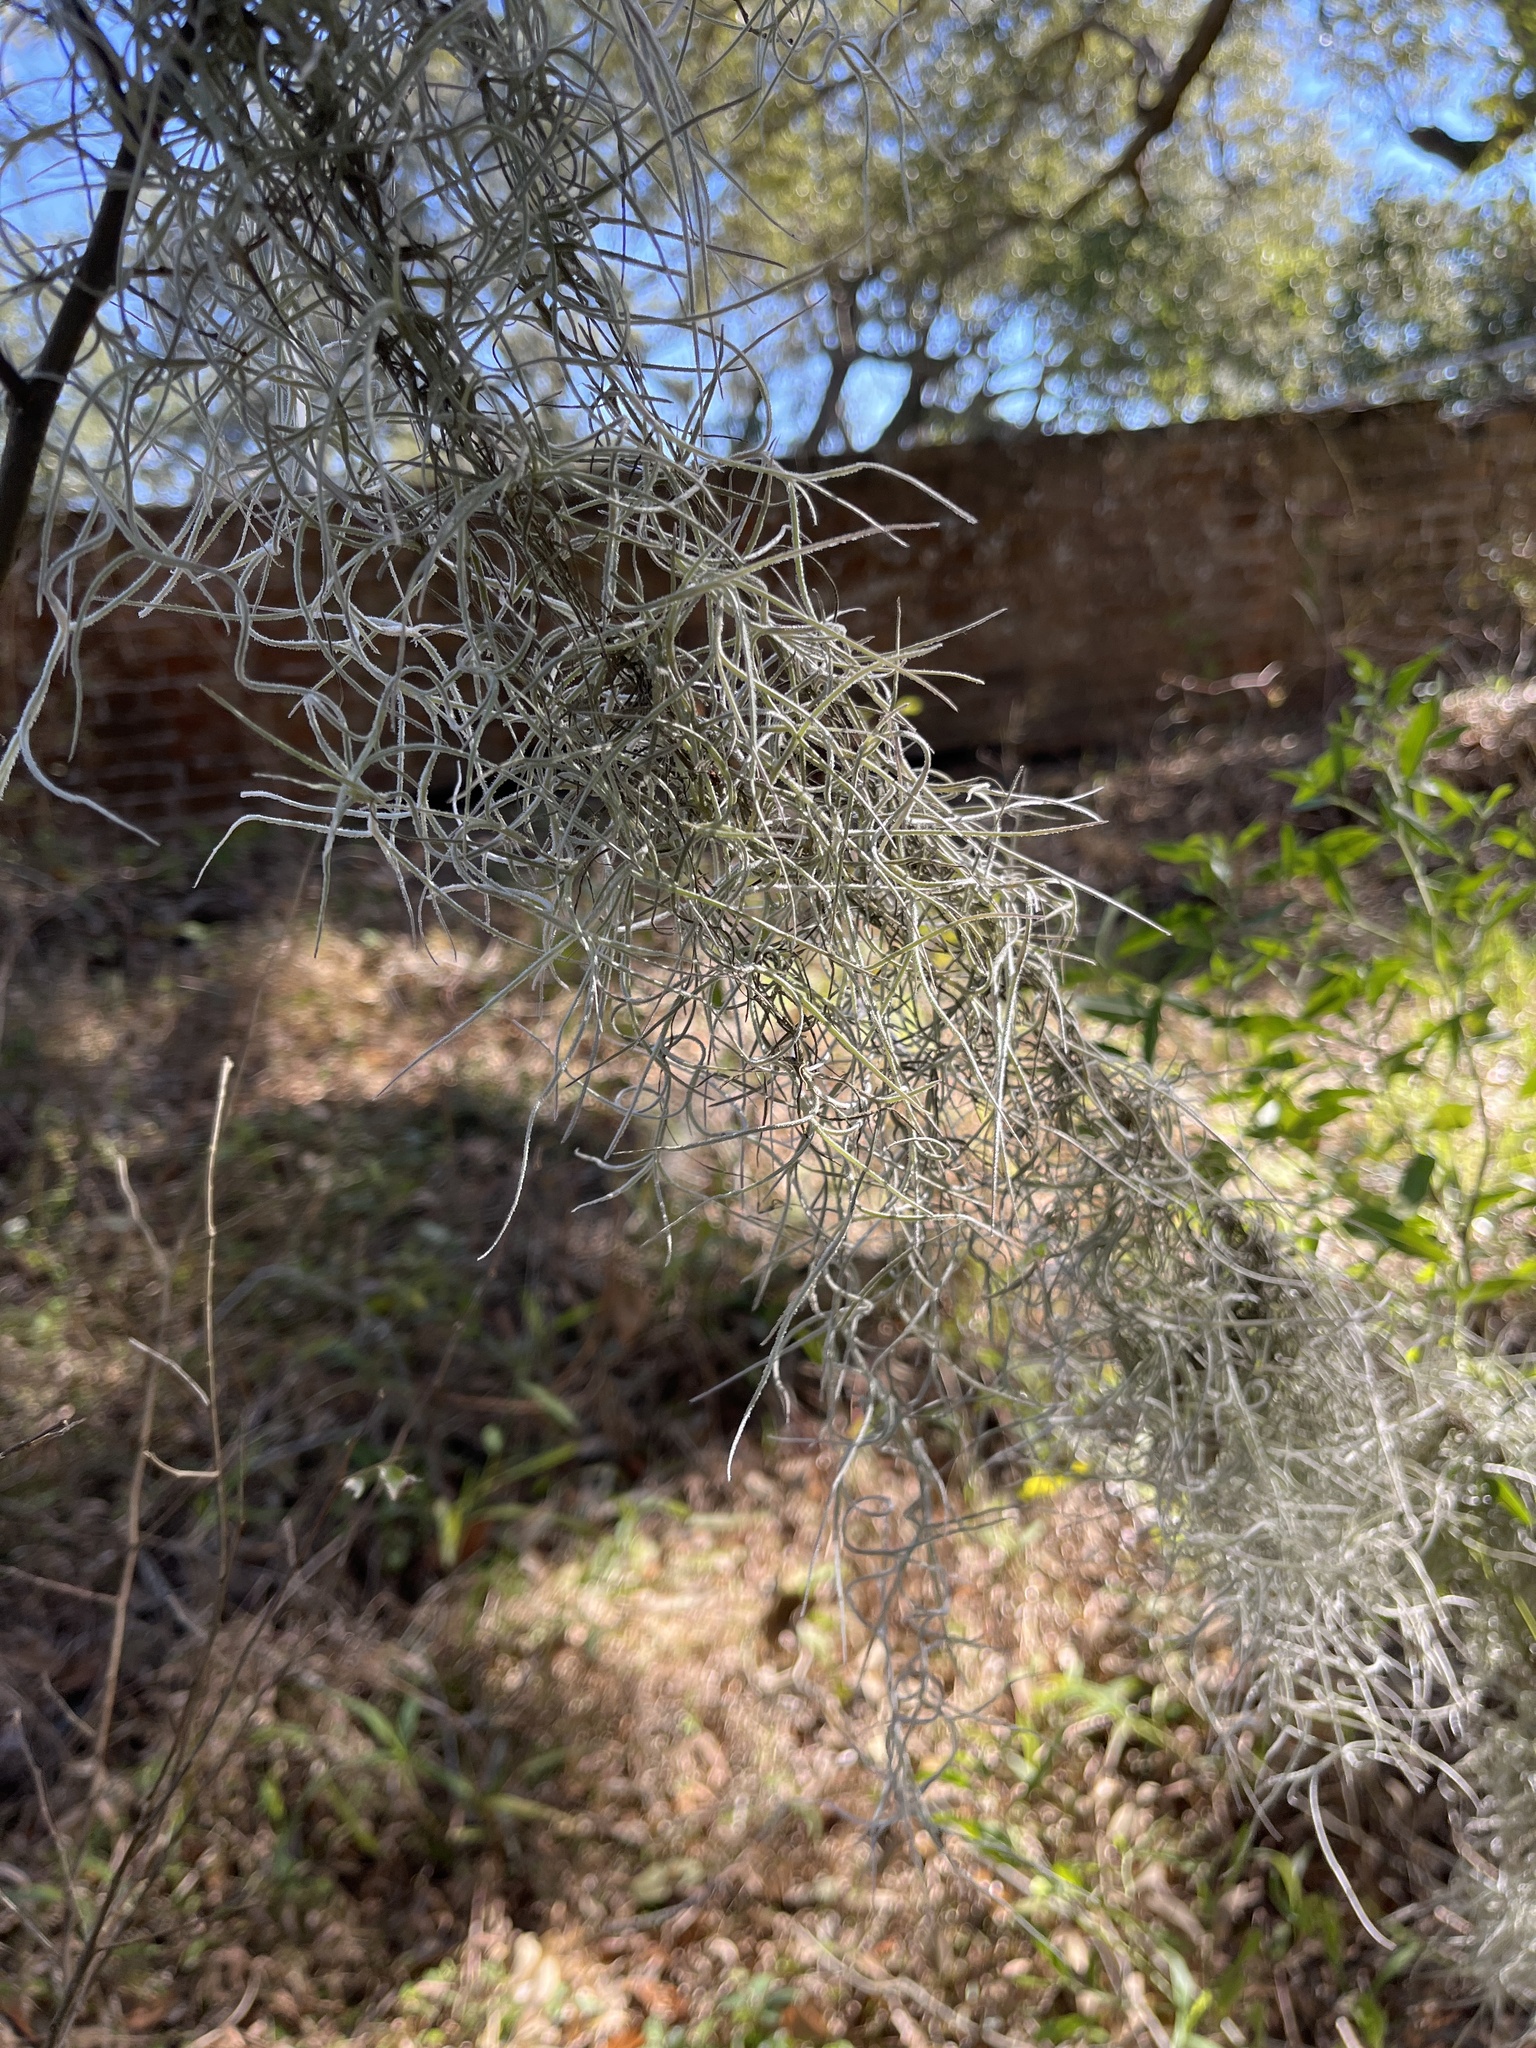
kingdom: Plantae
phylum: Tracheophyta
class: Liliopsida
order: Poales
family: Bromeliaceae
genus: Tillandsia
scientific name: Tillandsia usneoides
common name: Spanish moss
